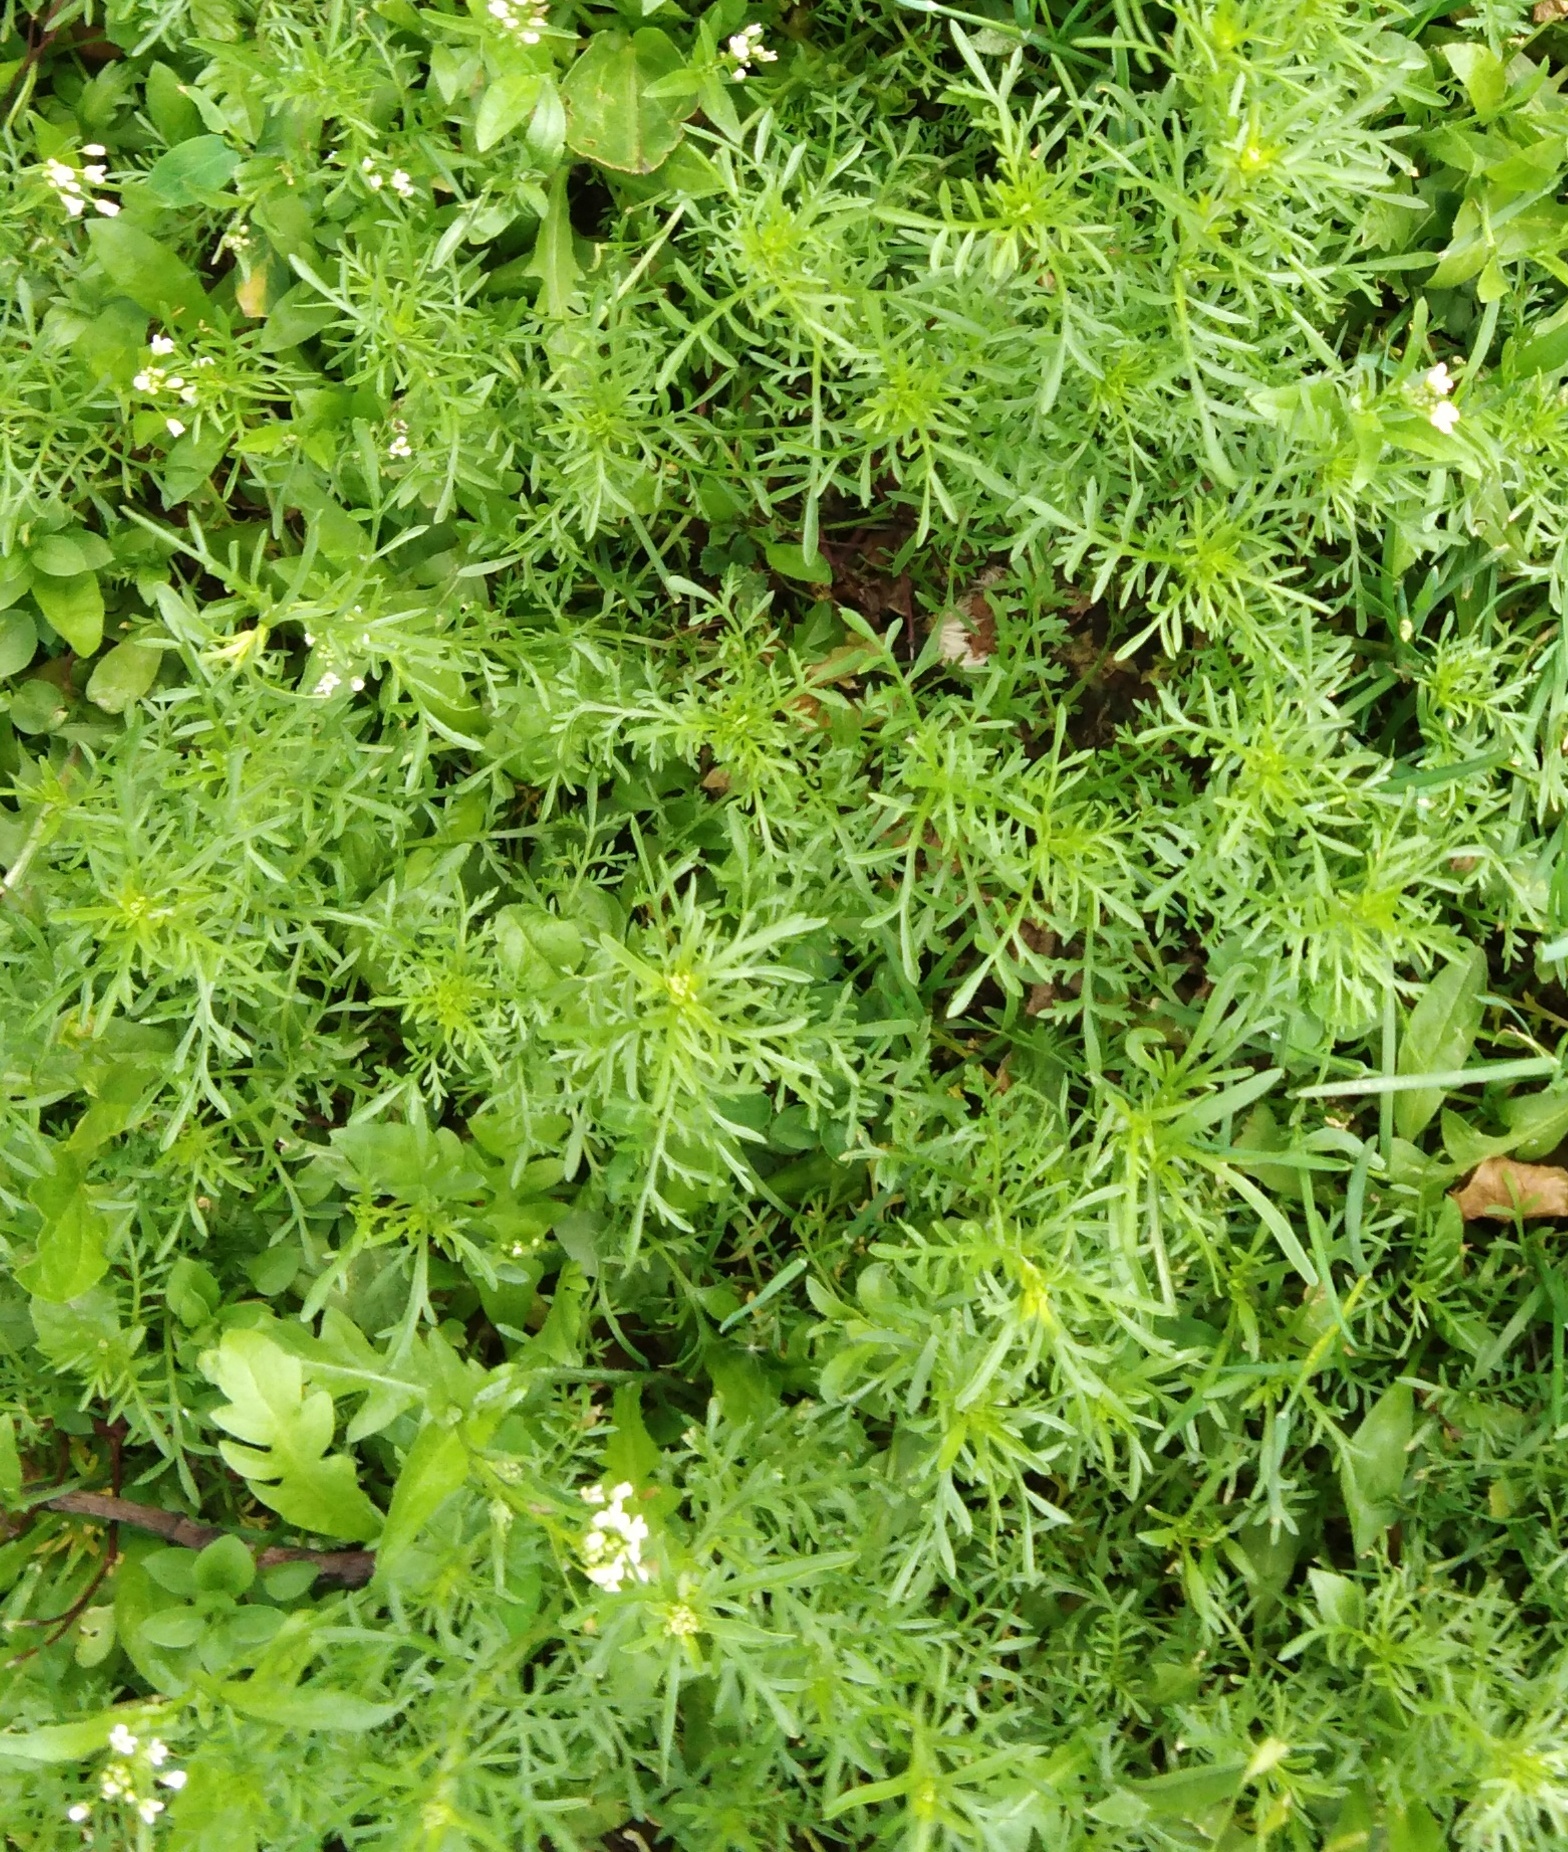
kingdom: Plantae
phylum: Tracheophyta
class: Magnoliopsida
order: Brassicales
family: Brassicaceae
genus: Lepidium
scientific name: Lepidium ruderale
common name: Narrow-leaved pepperwort
